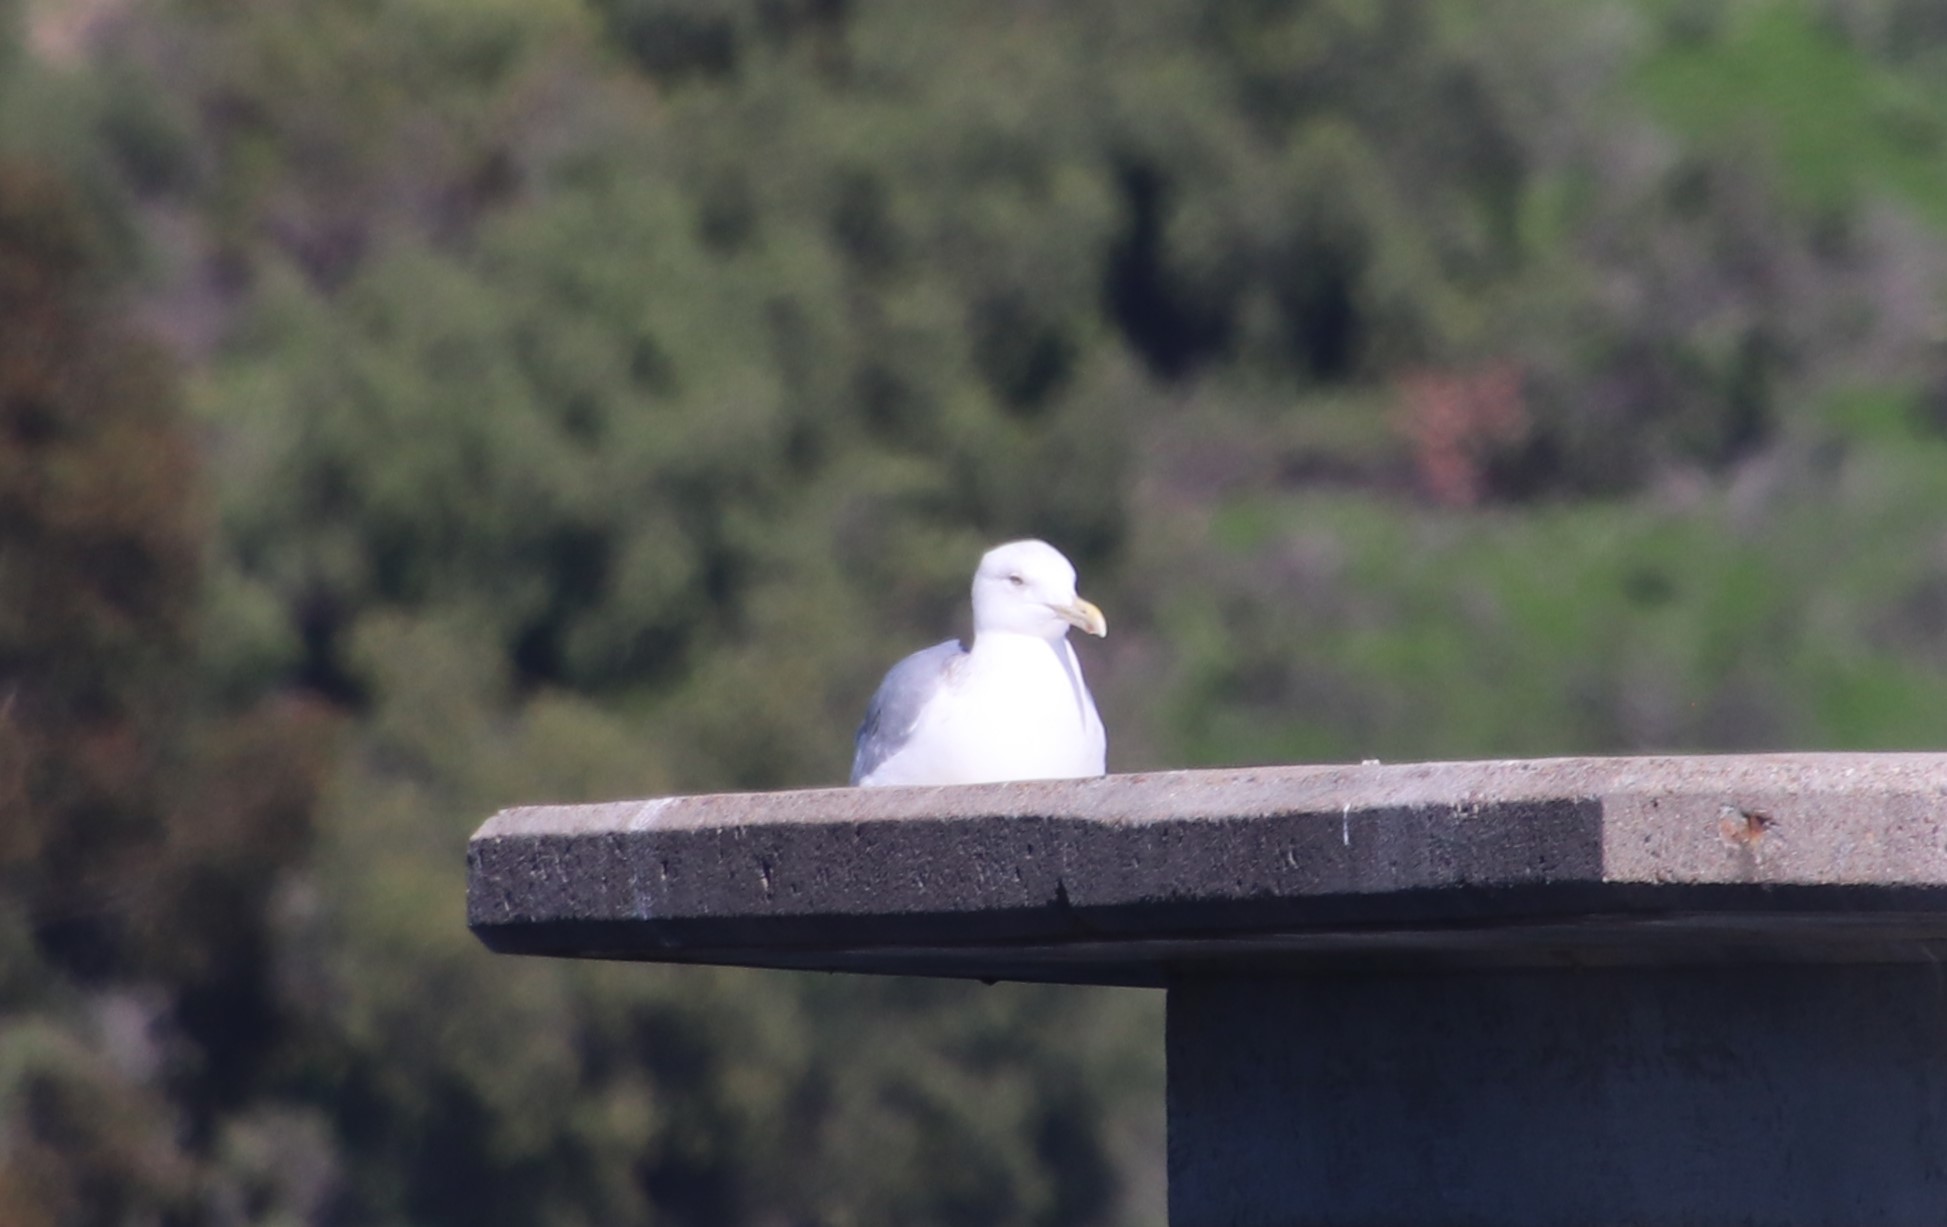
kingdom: Animalia
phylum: Chordata
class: Aves
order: Charadriiformes
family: Laridae
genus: Larus
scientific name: Larus argentatus
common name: Herring gull
